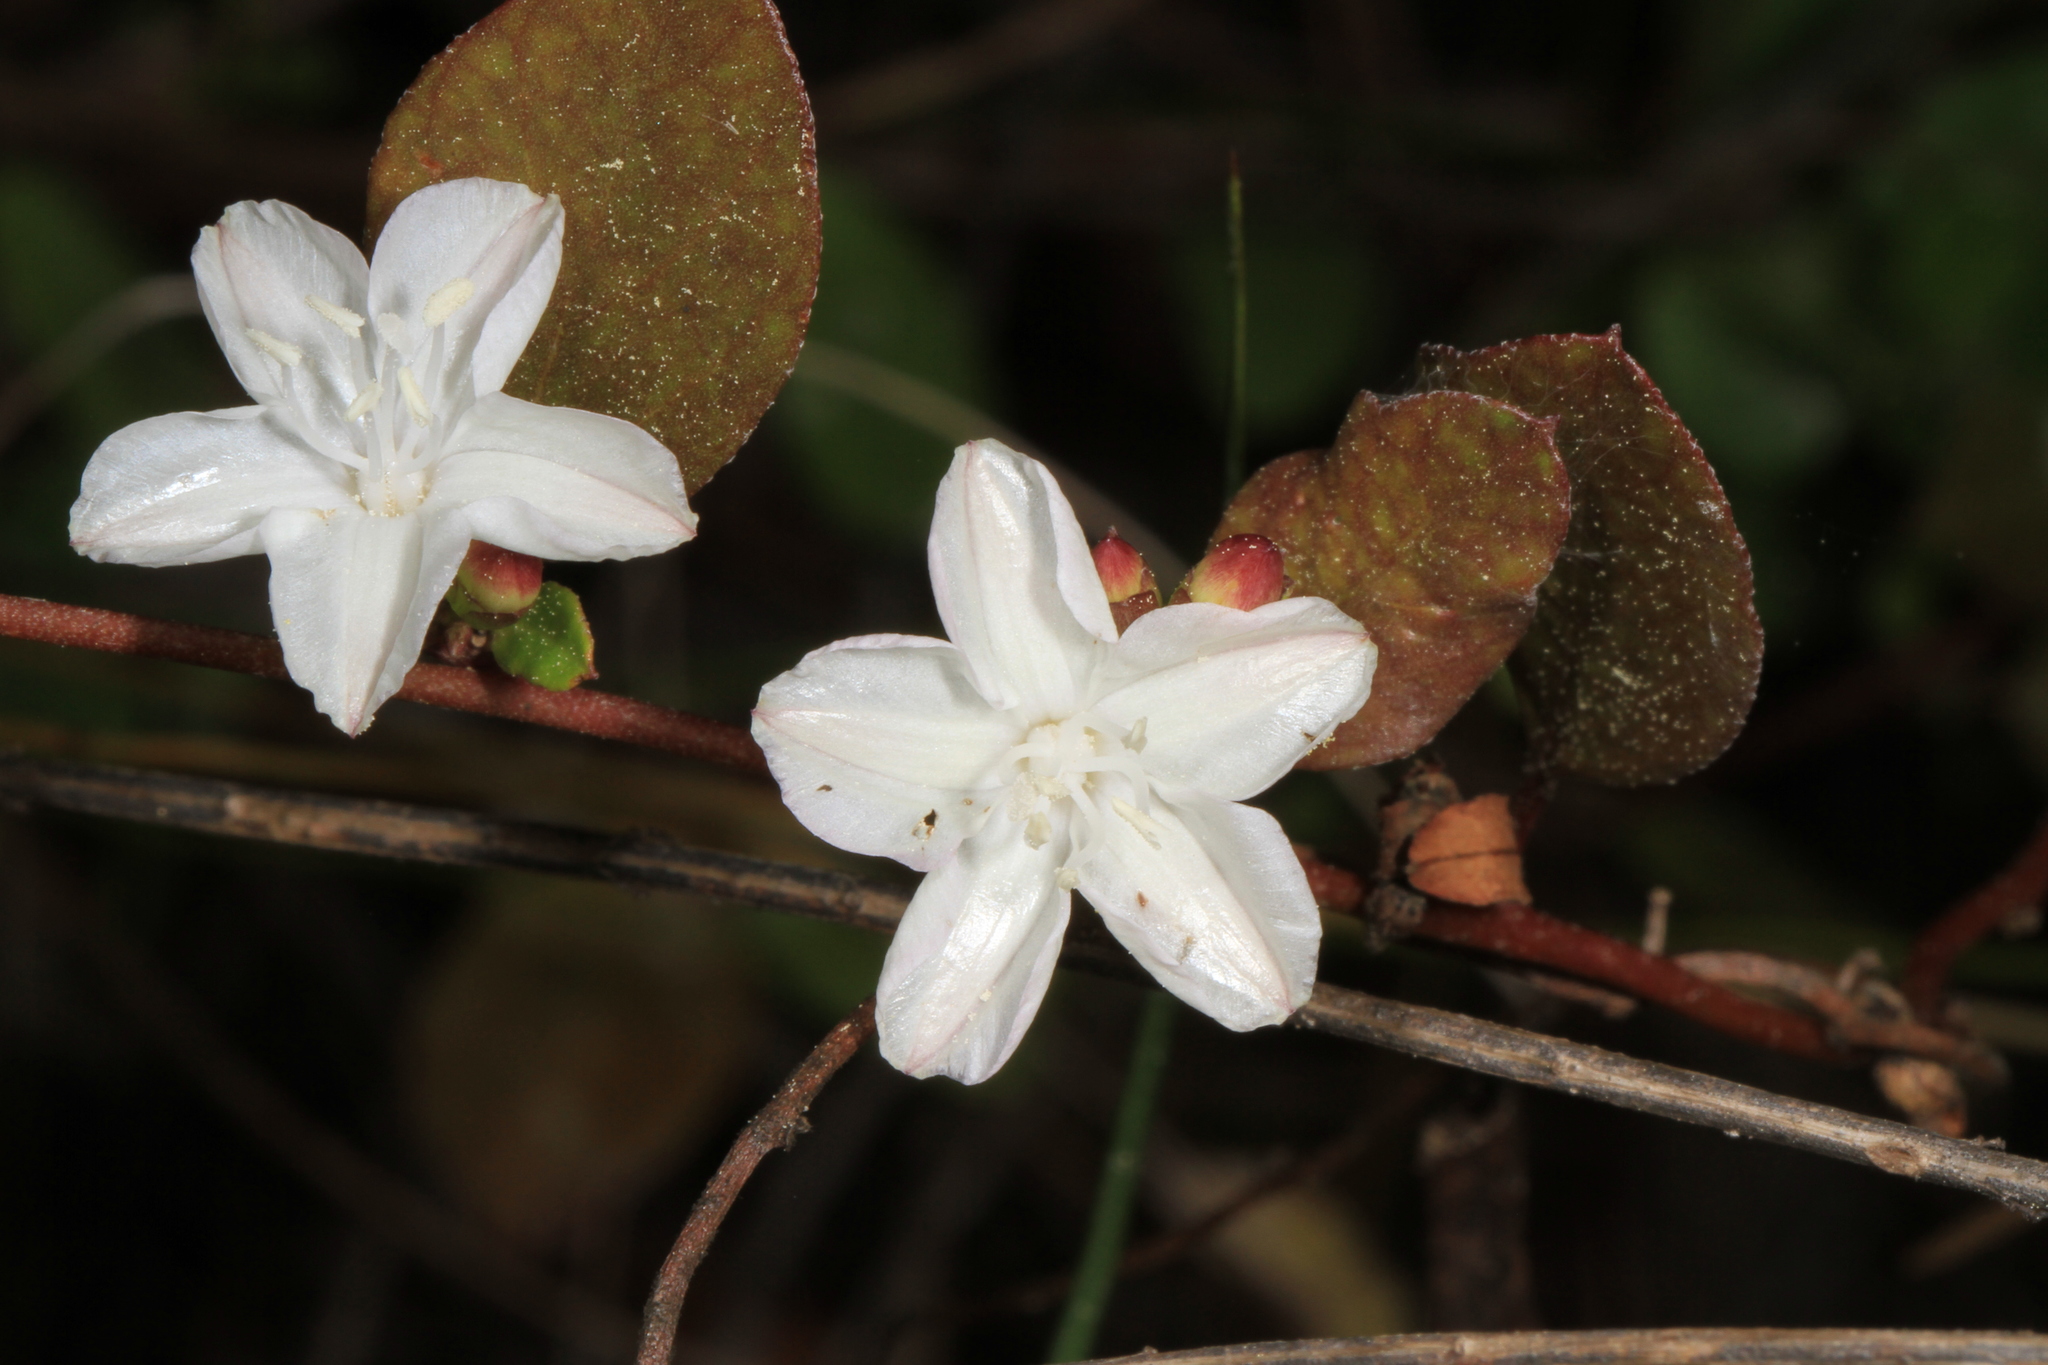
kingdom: Plantae
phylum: Tracheophyta
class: Magnoliopsida
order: Solanales
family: Convolvulaceae
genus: Jacquemontia
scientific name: Jacquemontia curtissii
